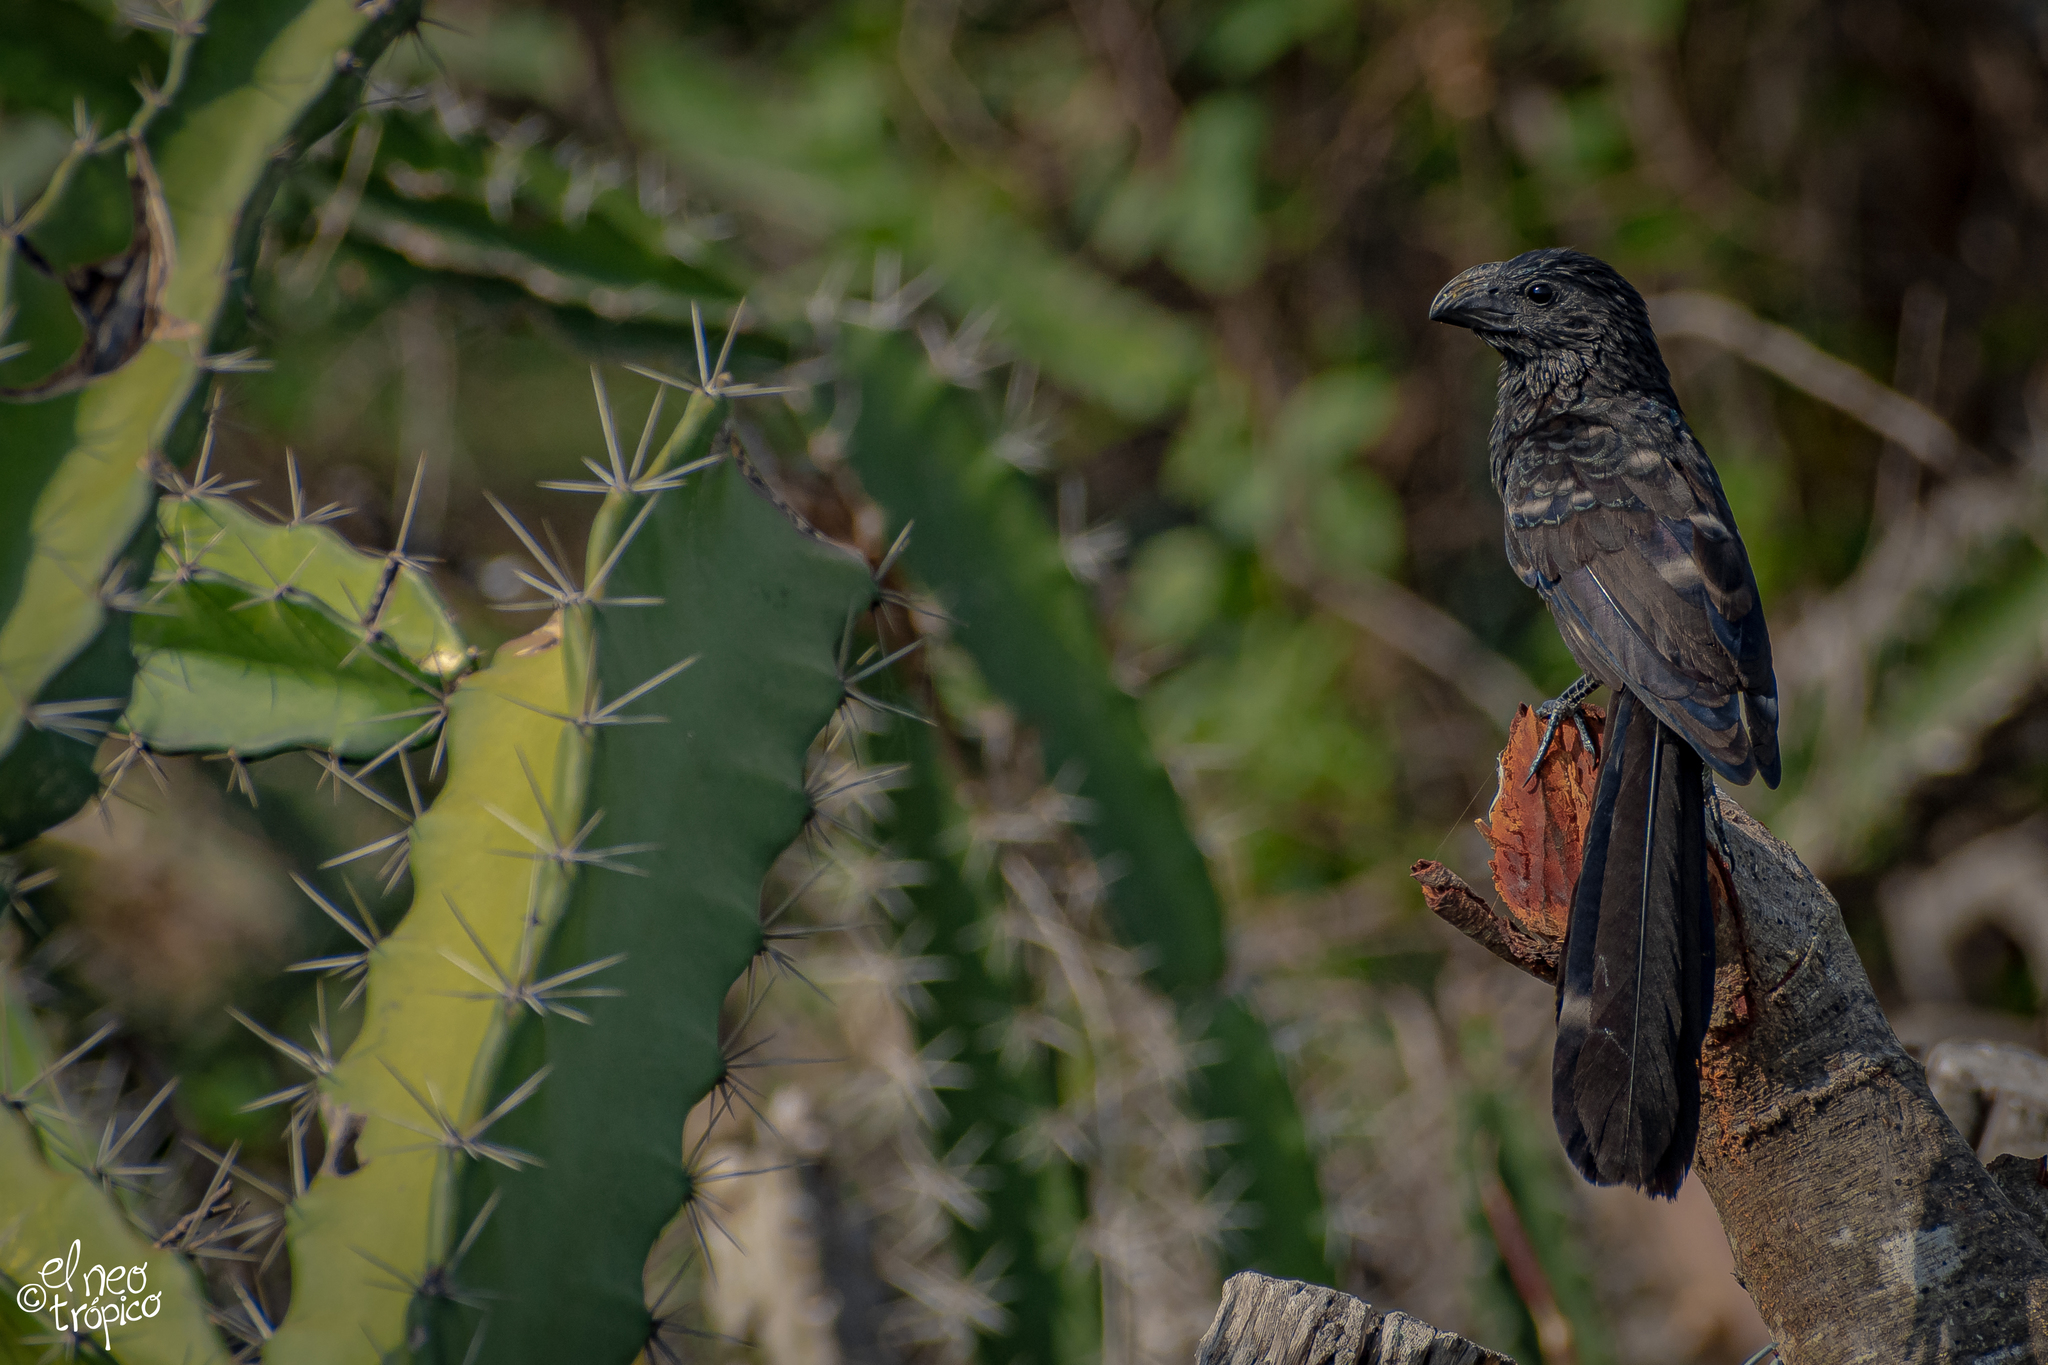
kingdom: Animalia
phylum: Chordata
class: Aves
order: Cuculiformes
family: Cuculidae
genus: Crotophaga
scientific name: Crotophaga sulcirostris
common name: Groove-billed ani
